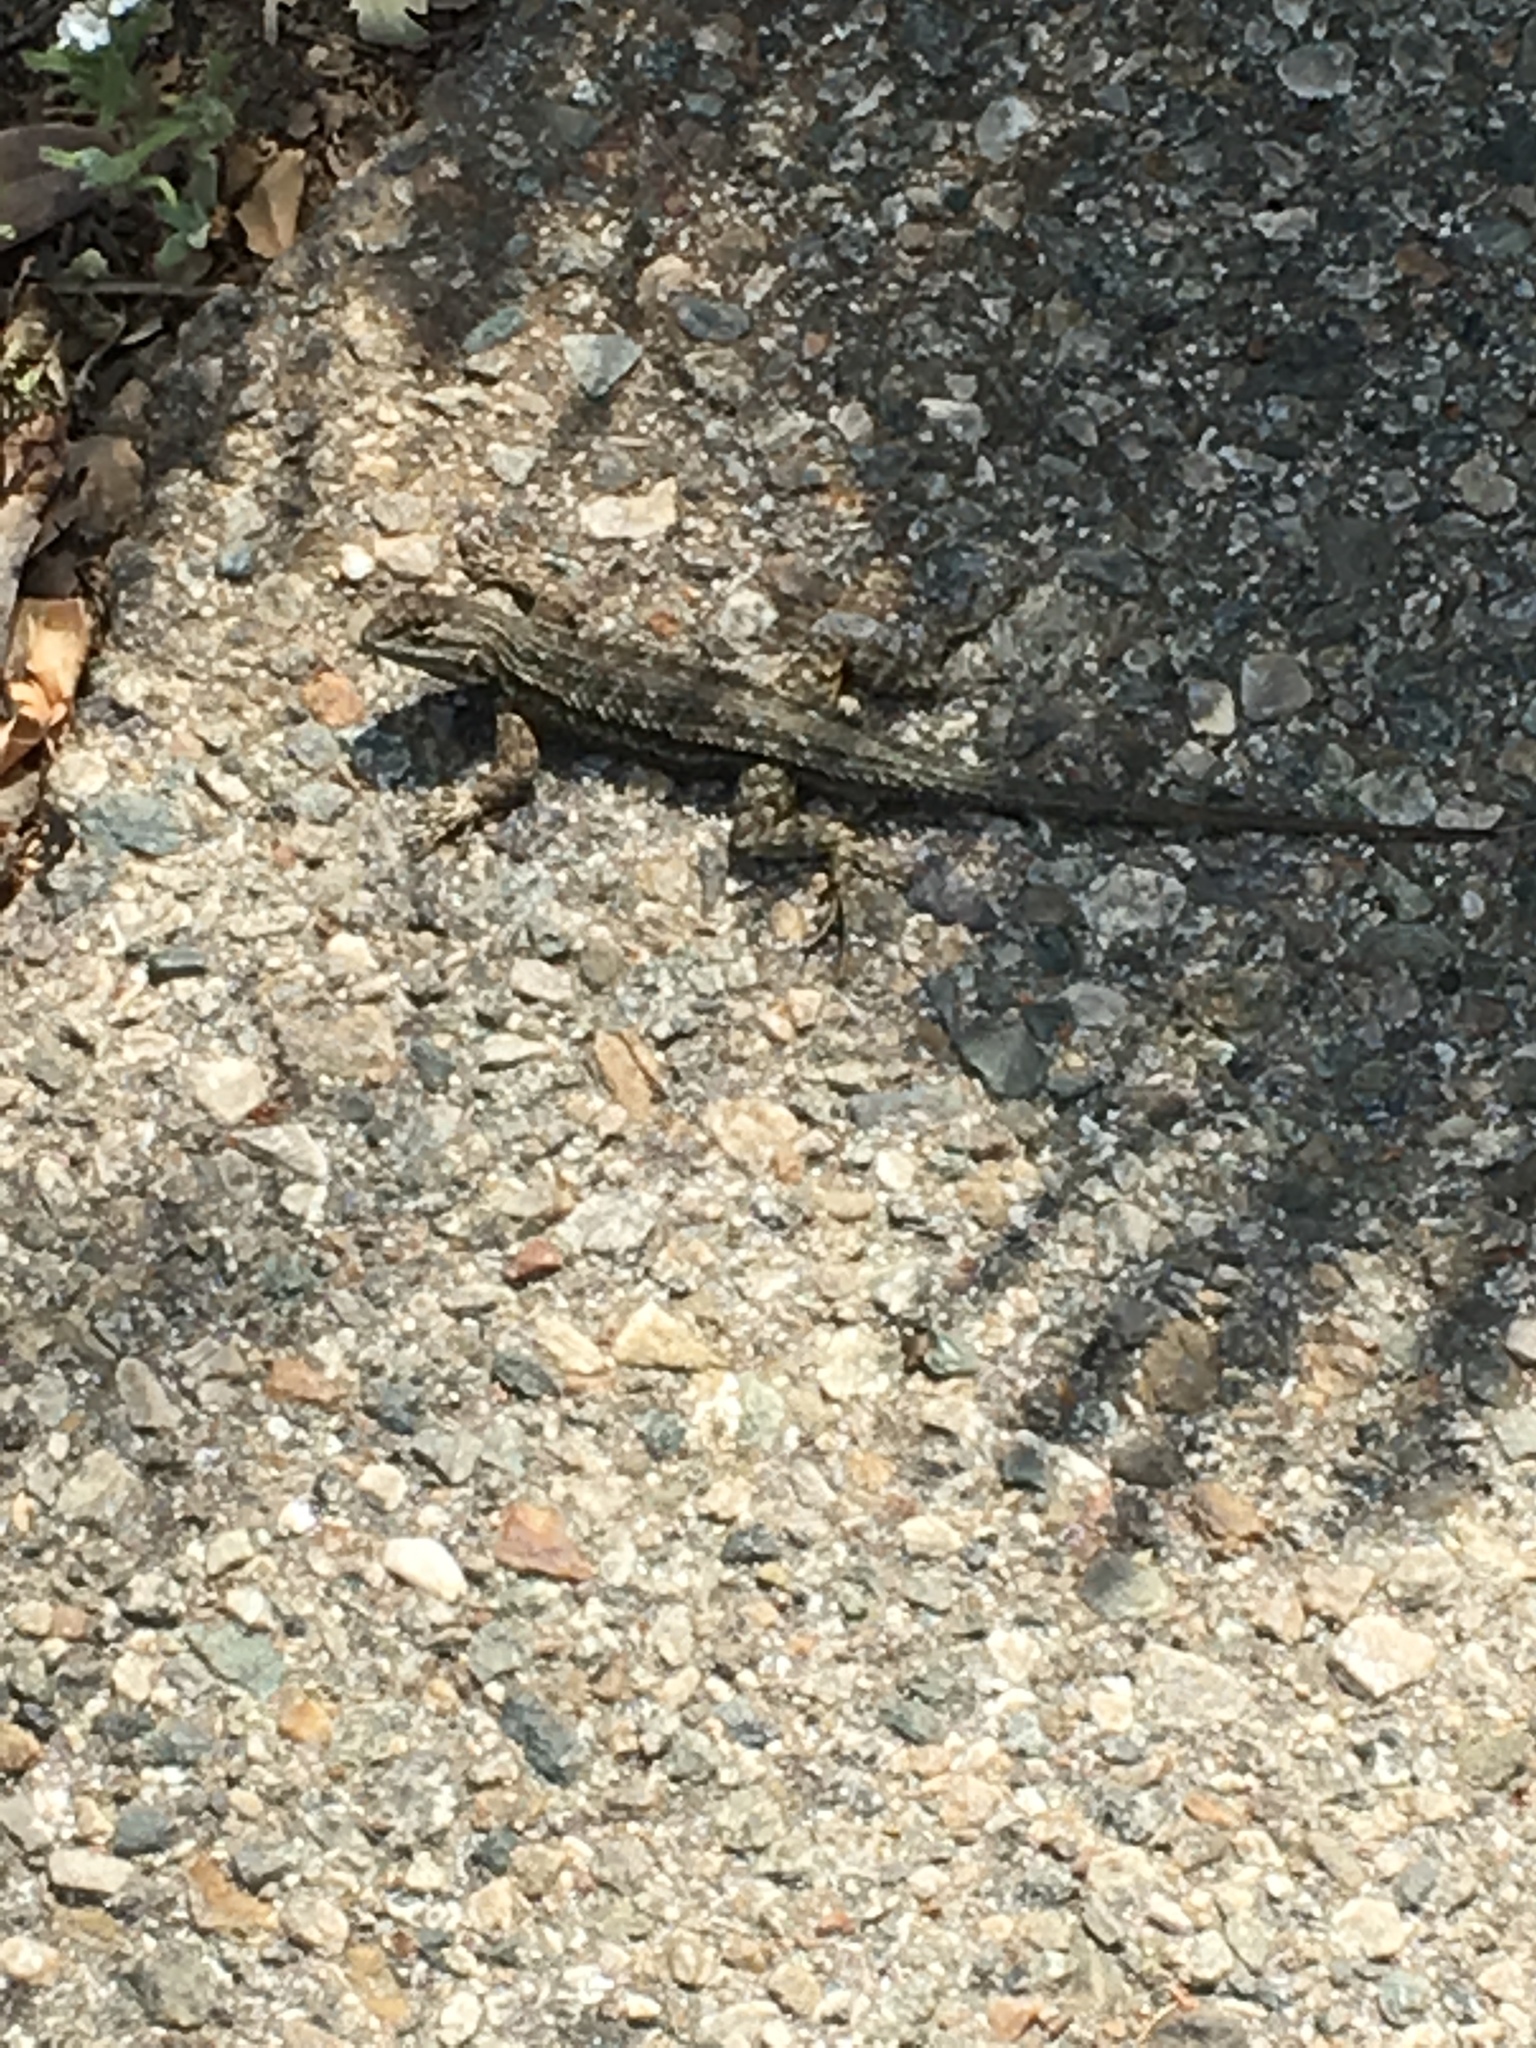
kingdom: Animalia
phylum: Chordata
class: Squamata
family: Phrynosomatidae
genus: Sceloporus
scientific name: Sceloporus occidentalis
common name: Western fence lizard
